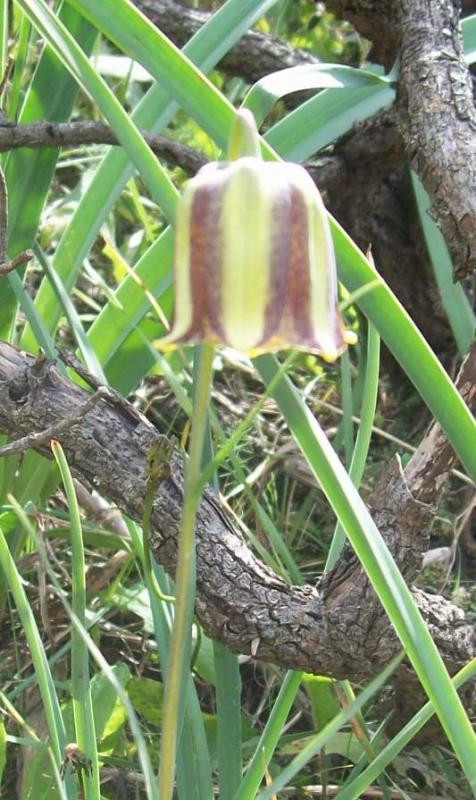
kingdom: Plantae
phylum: Tracheophyta
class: Liliopsida
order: Liliales
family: Liliaceae
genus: Fritillaria
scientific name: Fritillaria lusitanica
